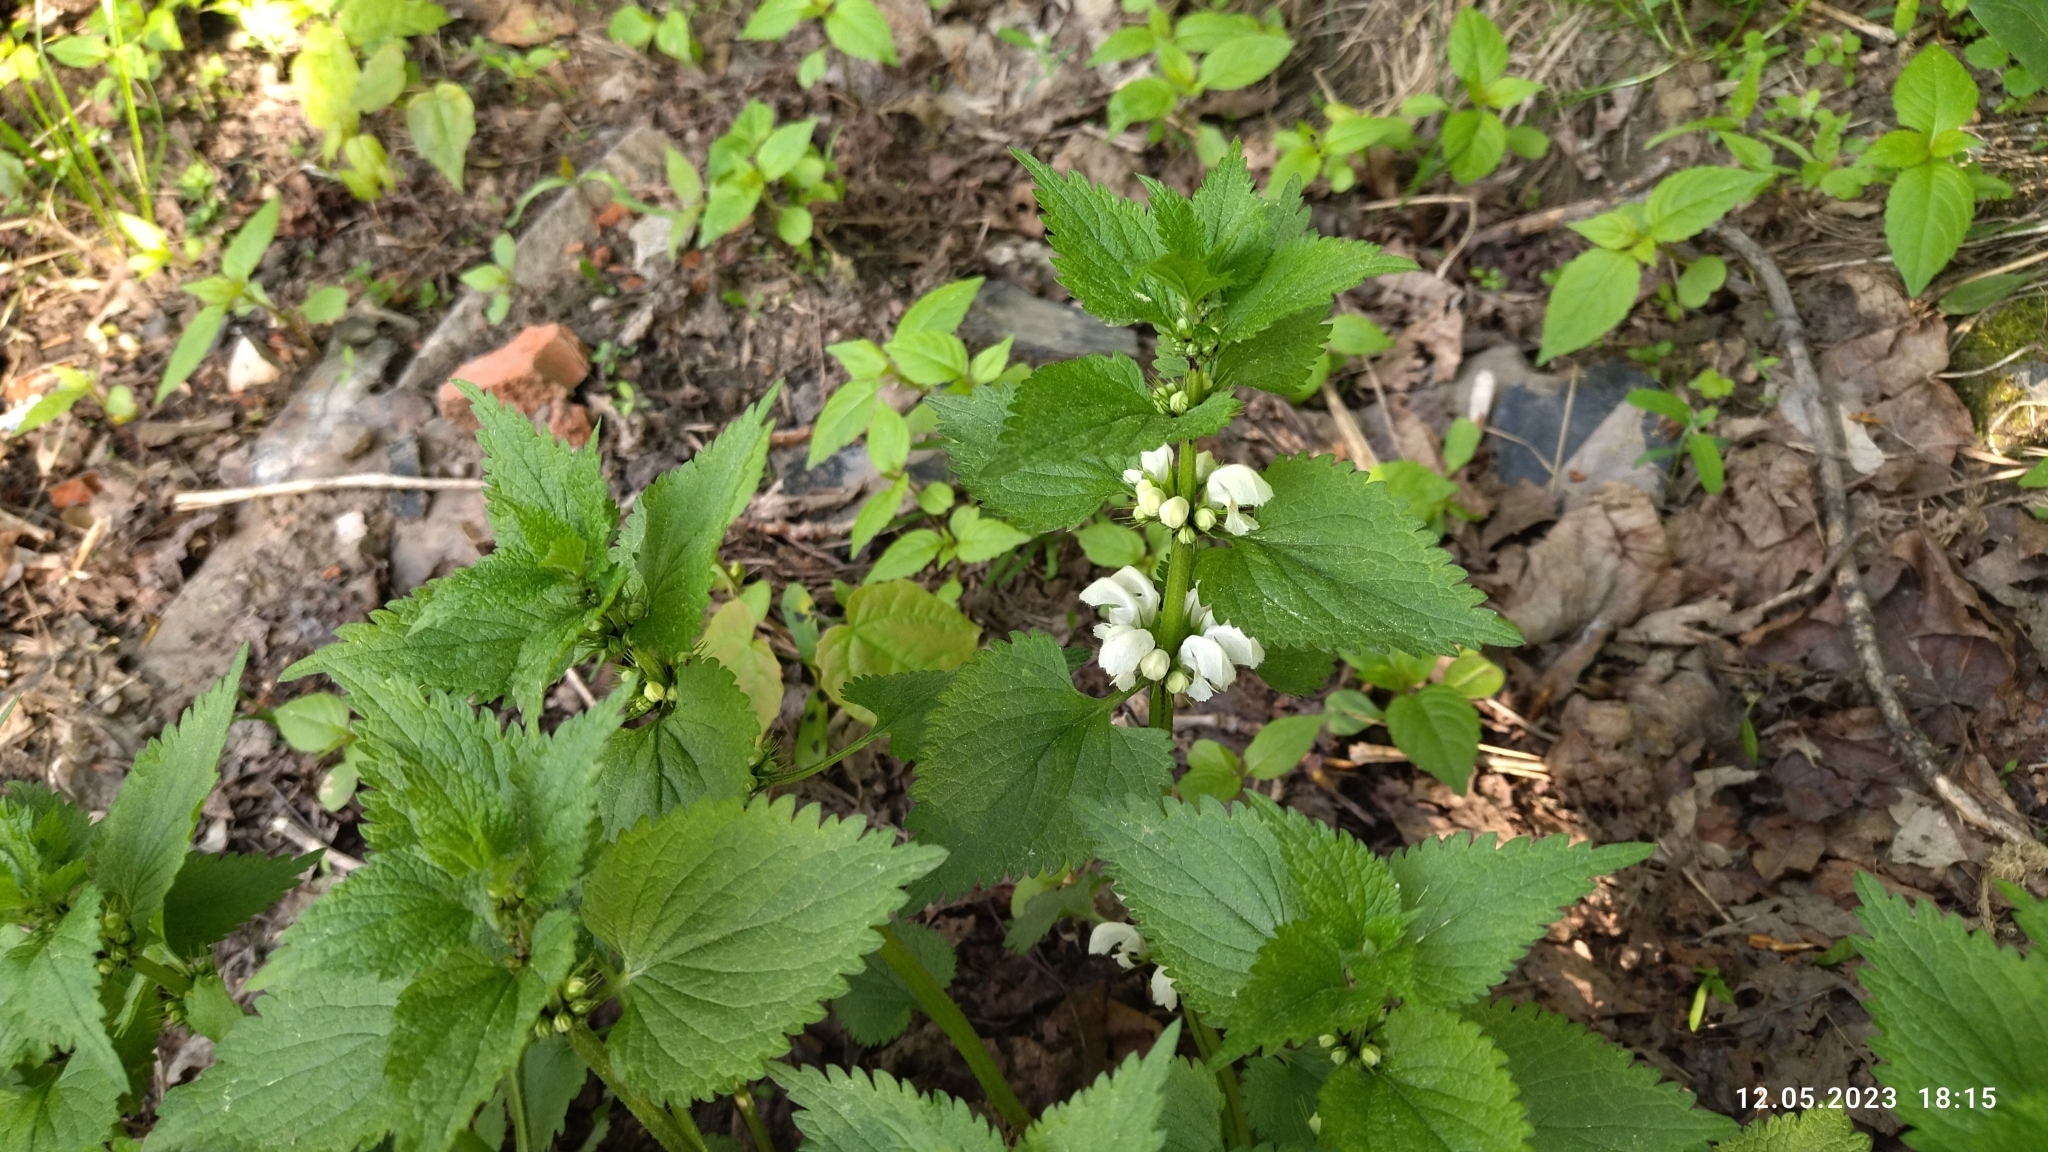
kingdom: Plantae
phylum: Tracheophyta
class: Magnoliopsida
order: Lamiales
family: Lamiaceae
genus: Lamium
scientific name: Lamium album
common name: White dead-nettle
